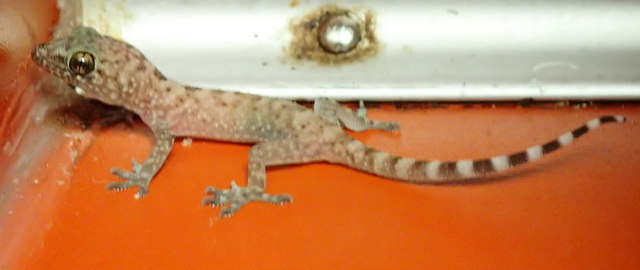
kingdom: Animalia
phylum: Chordata
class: Squamata
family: Gekkonidae
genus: Hemidactylus
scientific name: Hemidactylus turcicus
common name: Turkish gecko
